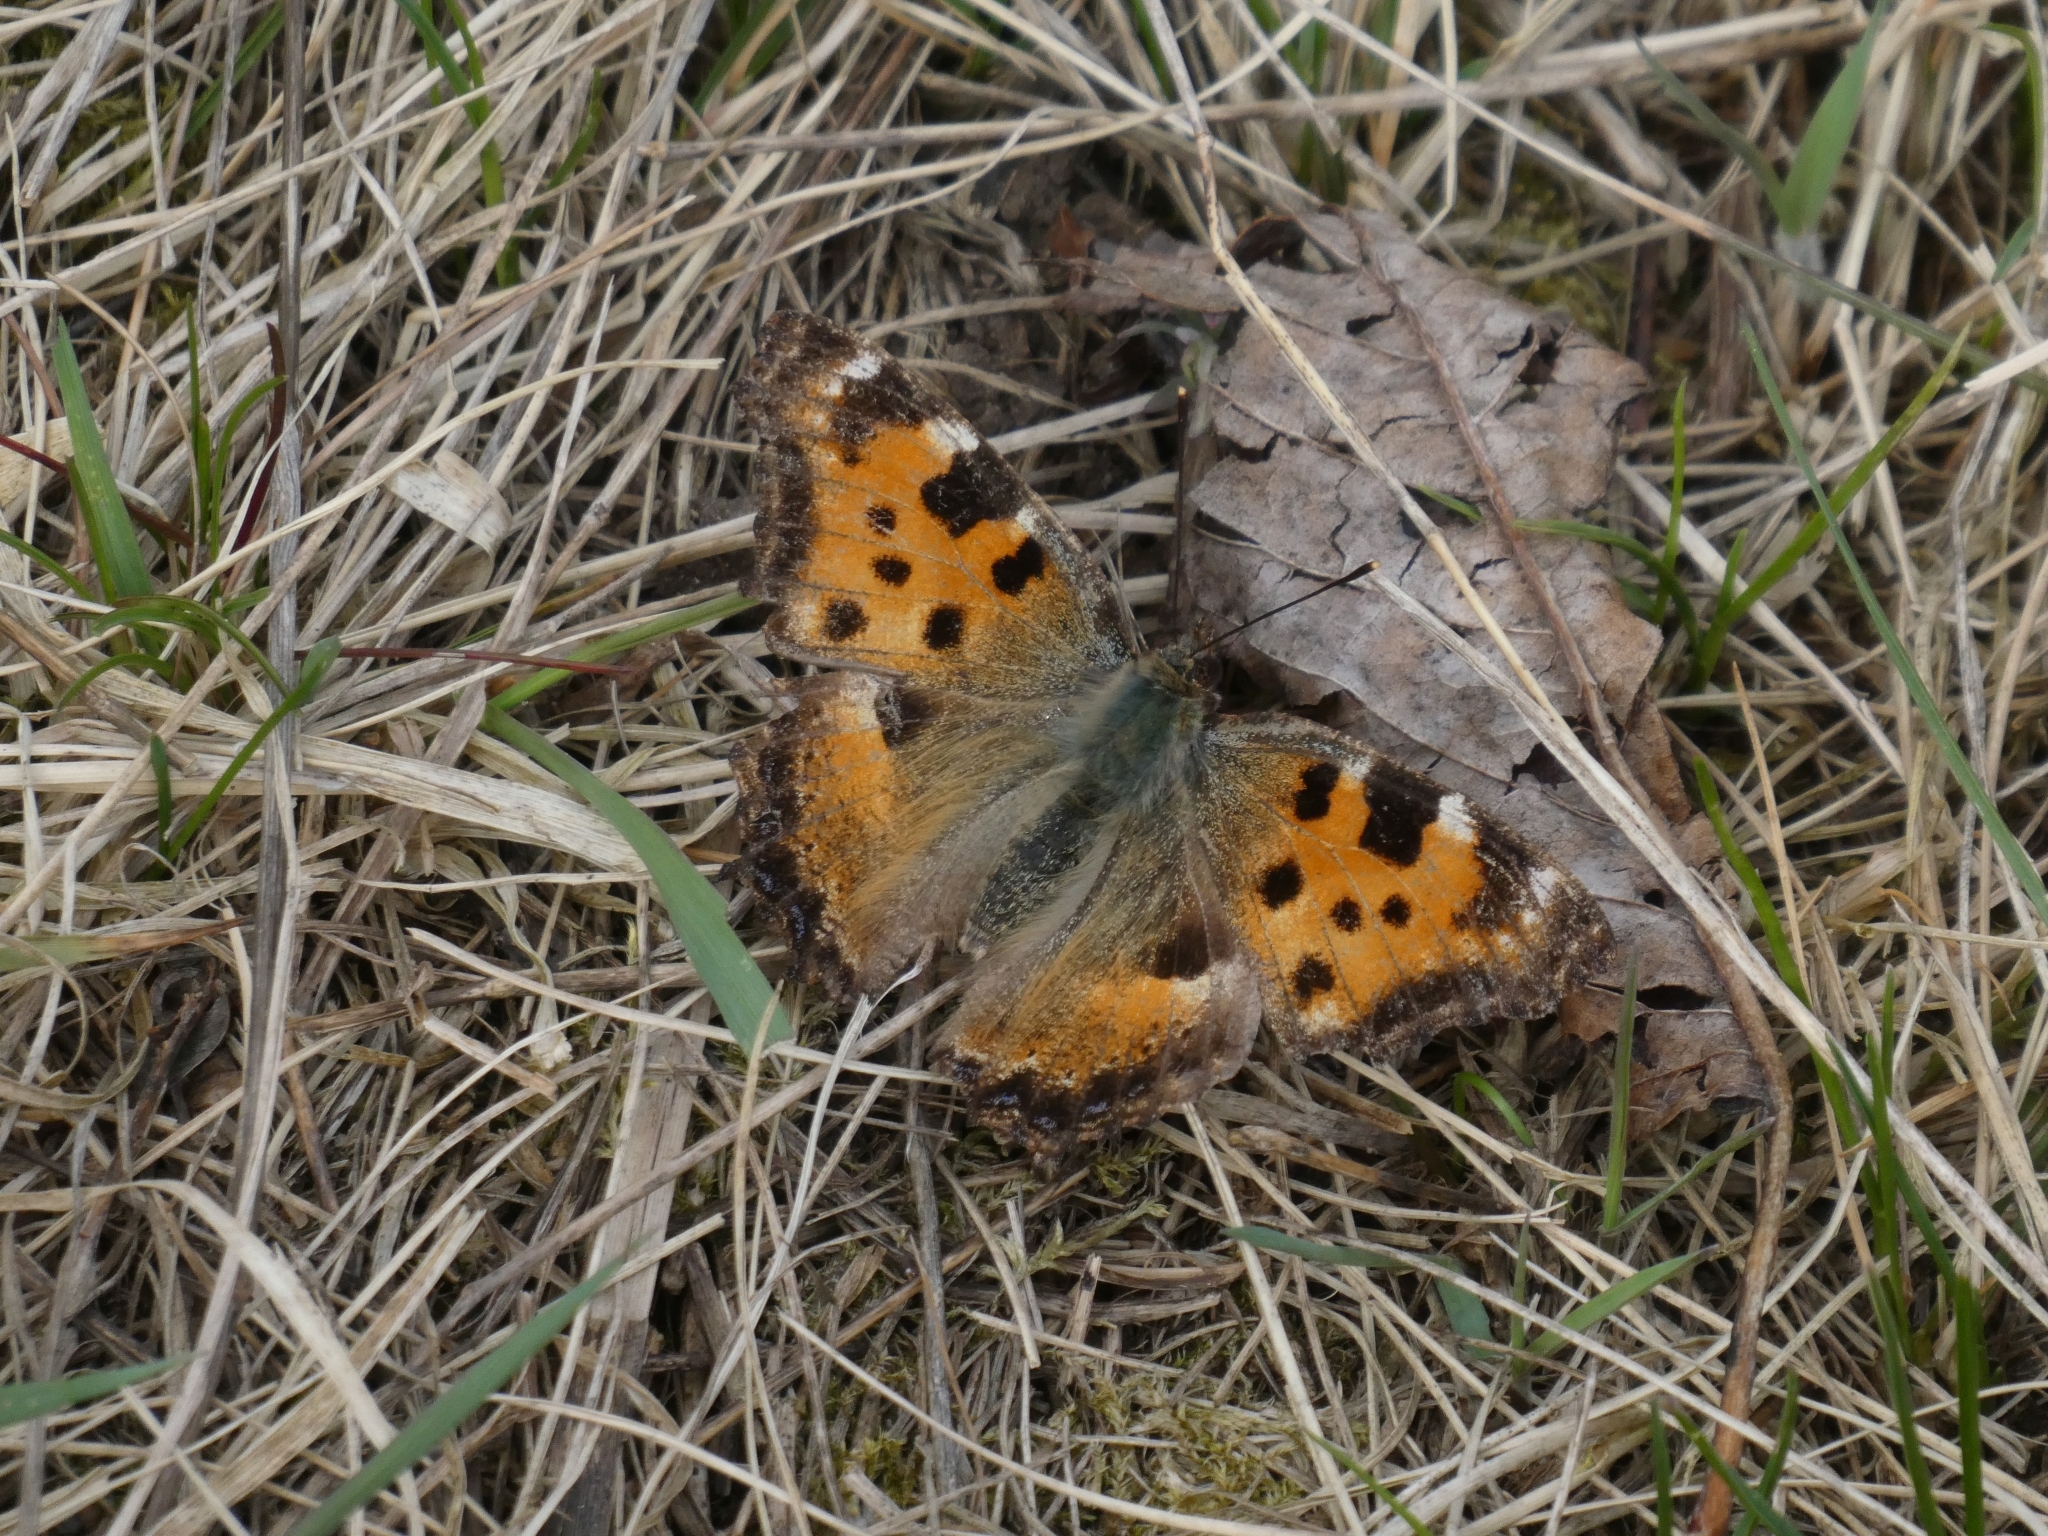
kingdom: Animalia
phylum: Arthropoda
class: Insecta
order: Lepidoptera
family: Nymphalidae
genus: Nymphalis
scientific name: Nymphalis polychloros
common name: Large tortoiseshell
